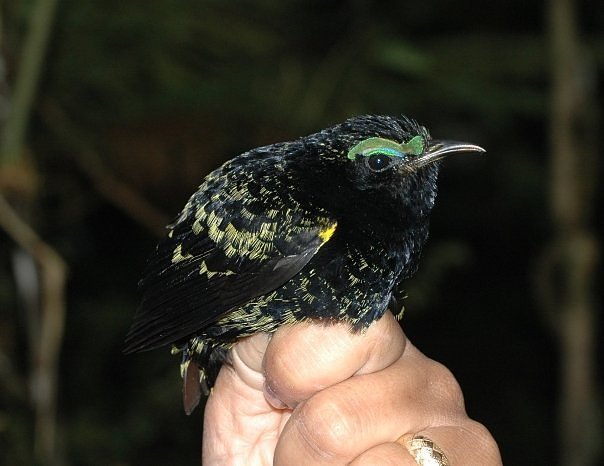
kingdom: Animalia
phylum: Chordata
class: Aves
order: Passeriformes
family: Philepittidae
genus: Philepitta
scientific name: Philepitta castanea
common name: Velvet asity
